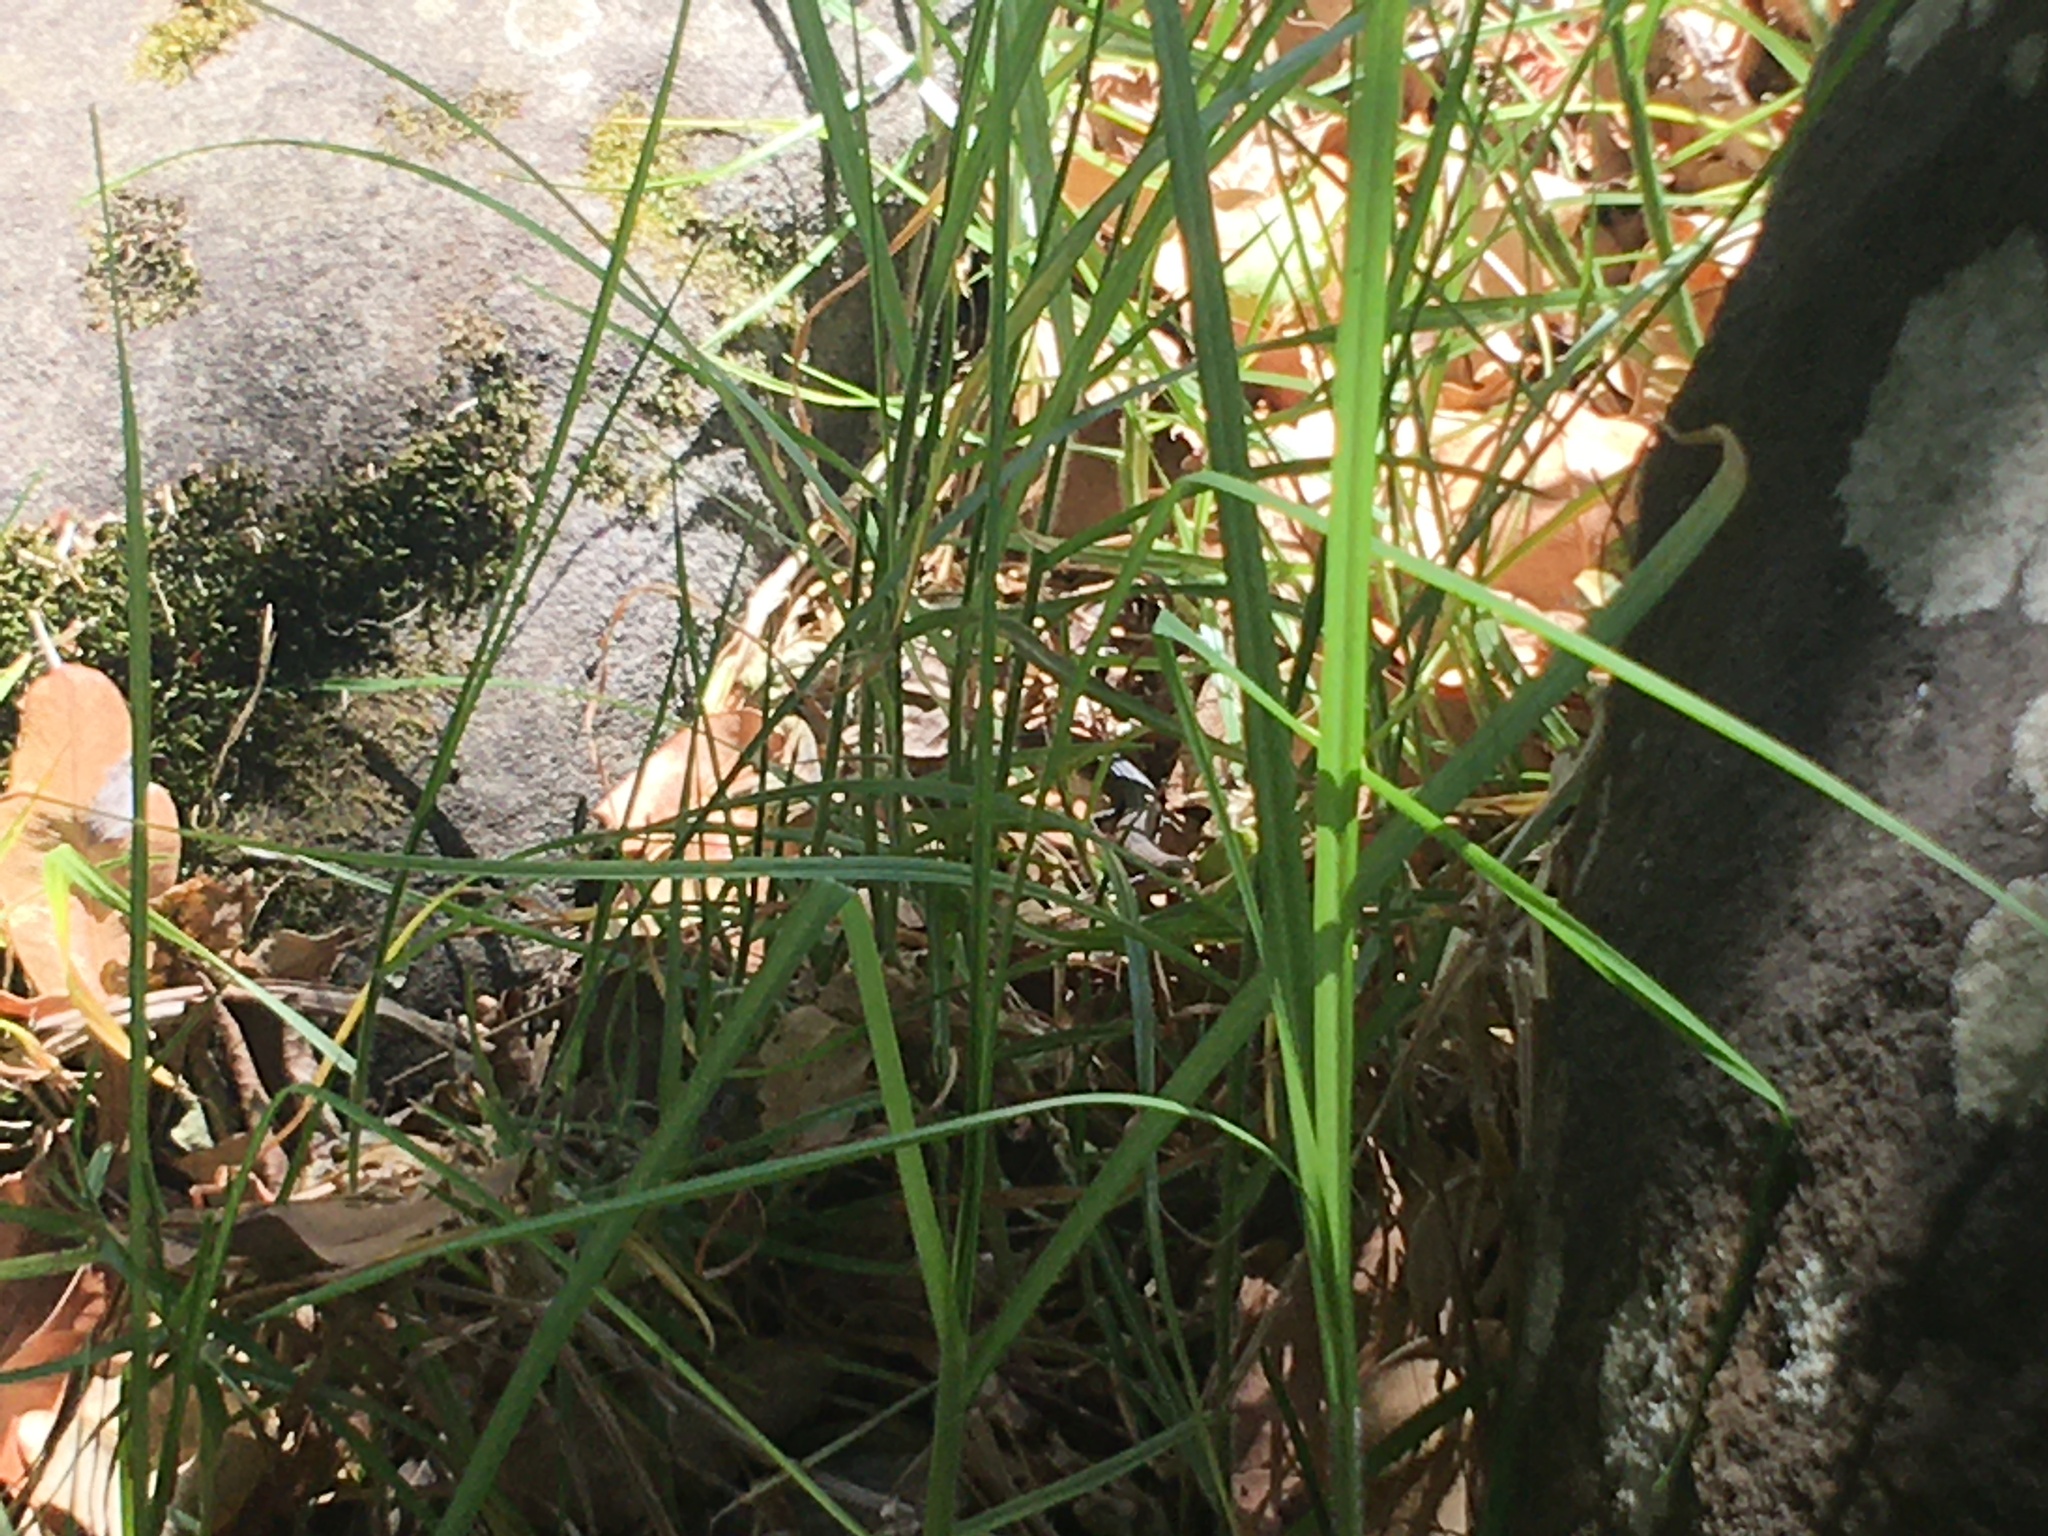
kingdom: Animalia
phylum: Chordata
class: Squamata
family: Gerrhosauridae
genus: Tetradactylus
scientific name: Tetradactylus seps
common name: Five-toed whip lizard
